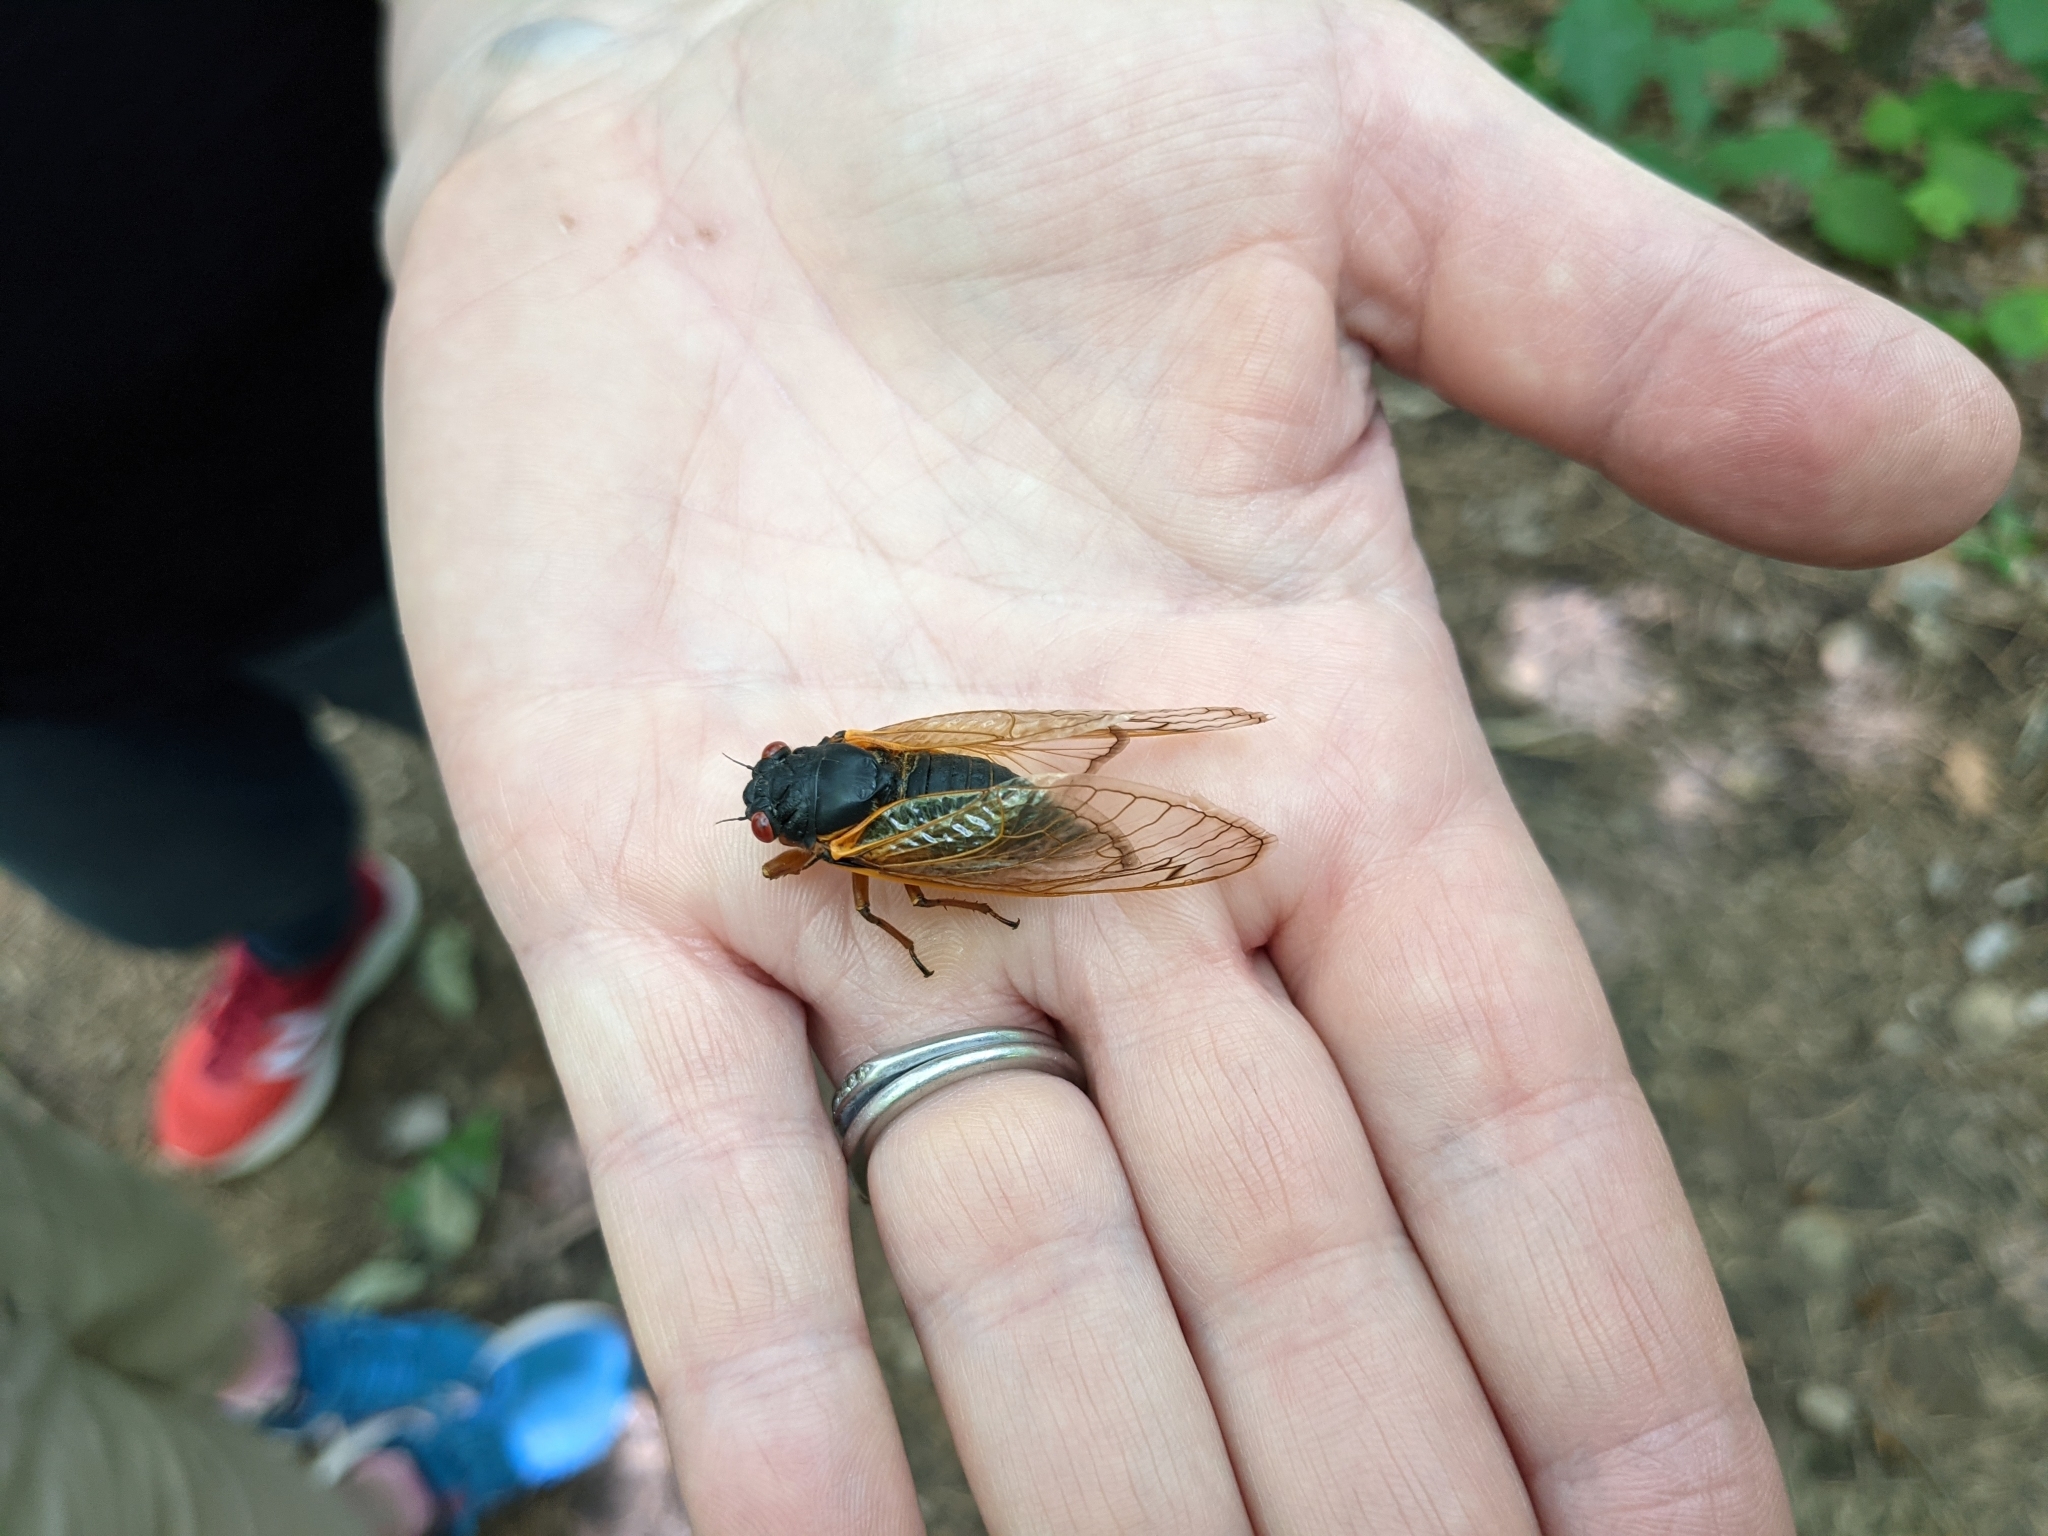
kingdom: Animalia
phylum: Arthropoda
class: Insecta
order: Hemiptera
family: Cicadidae
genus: Magicicada
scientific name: Magicicada septendecim
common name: Periodical cicada
